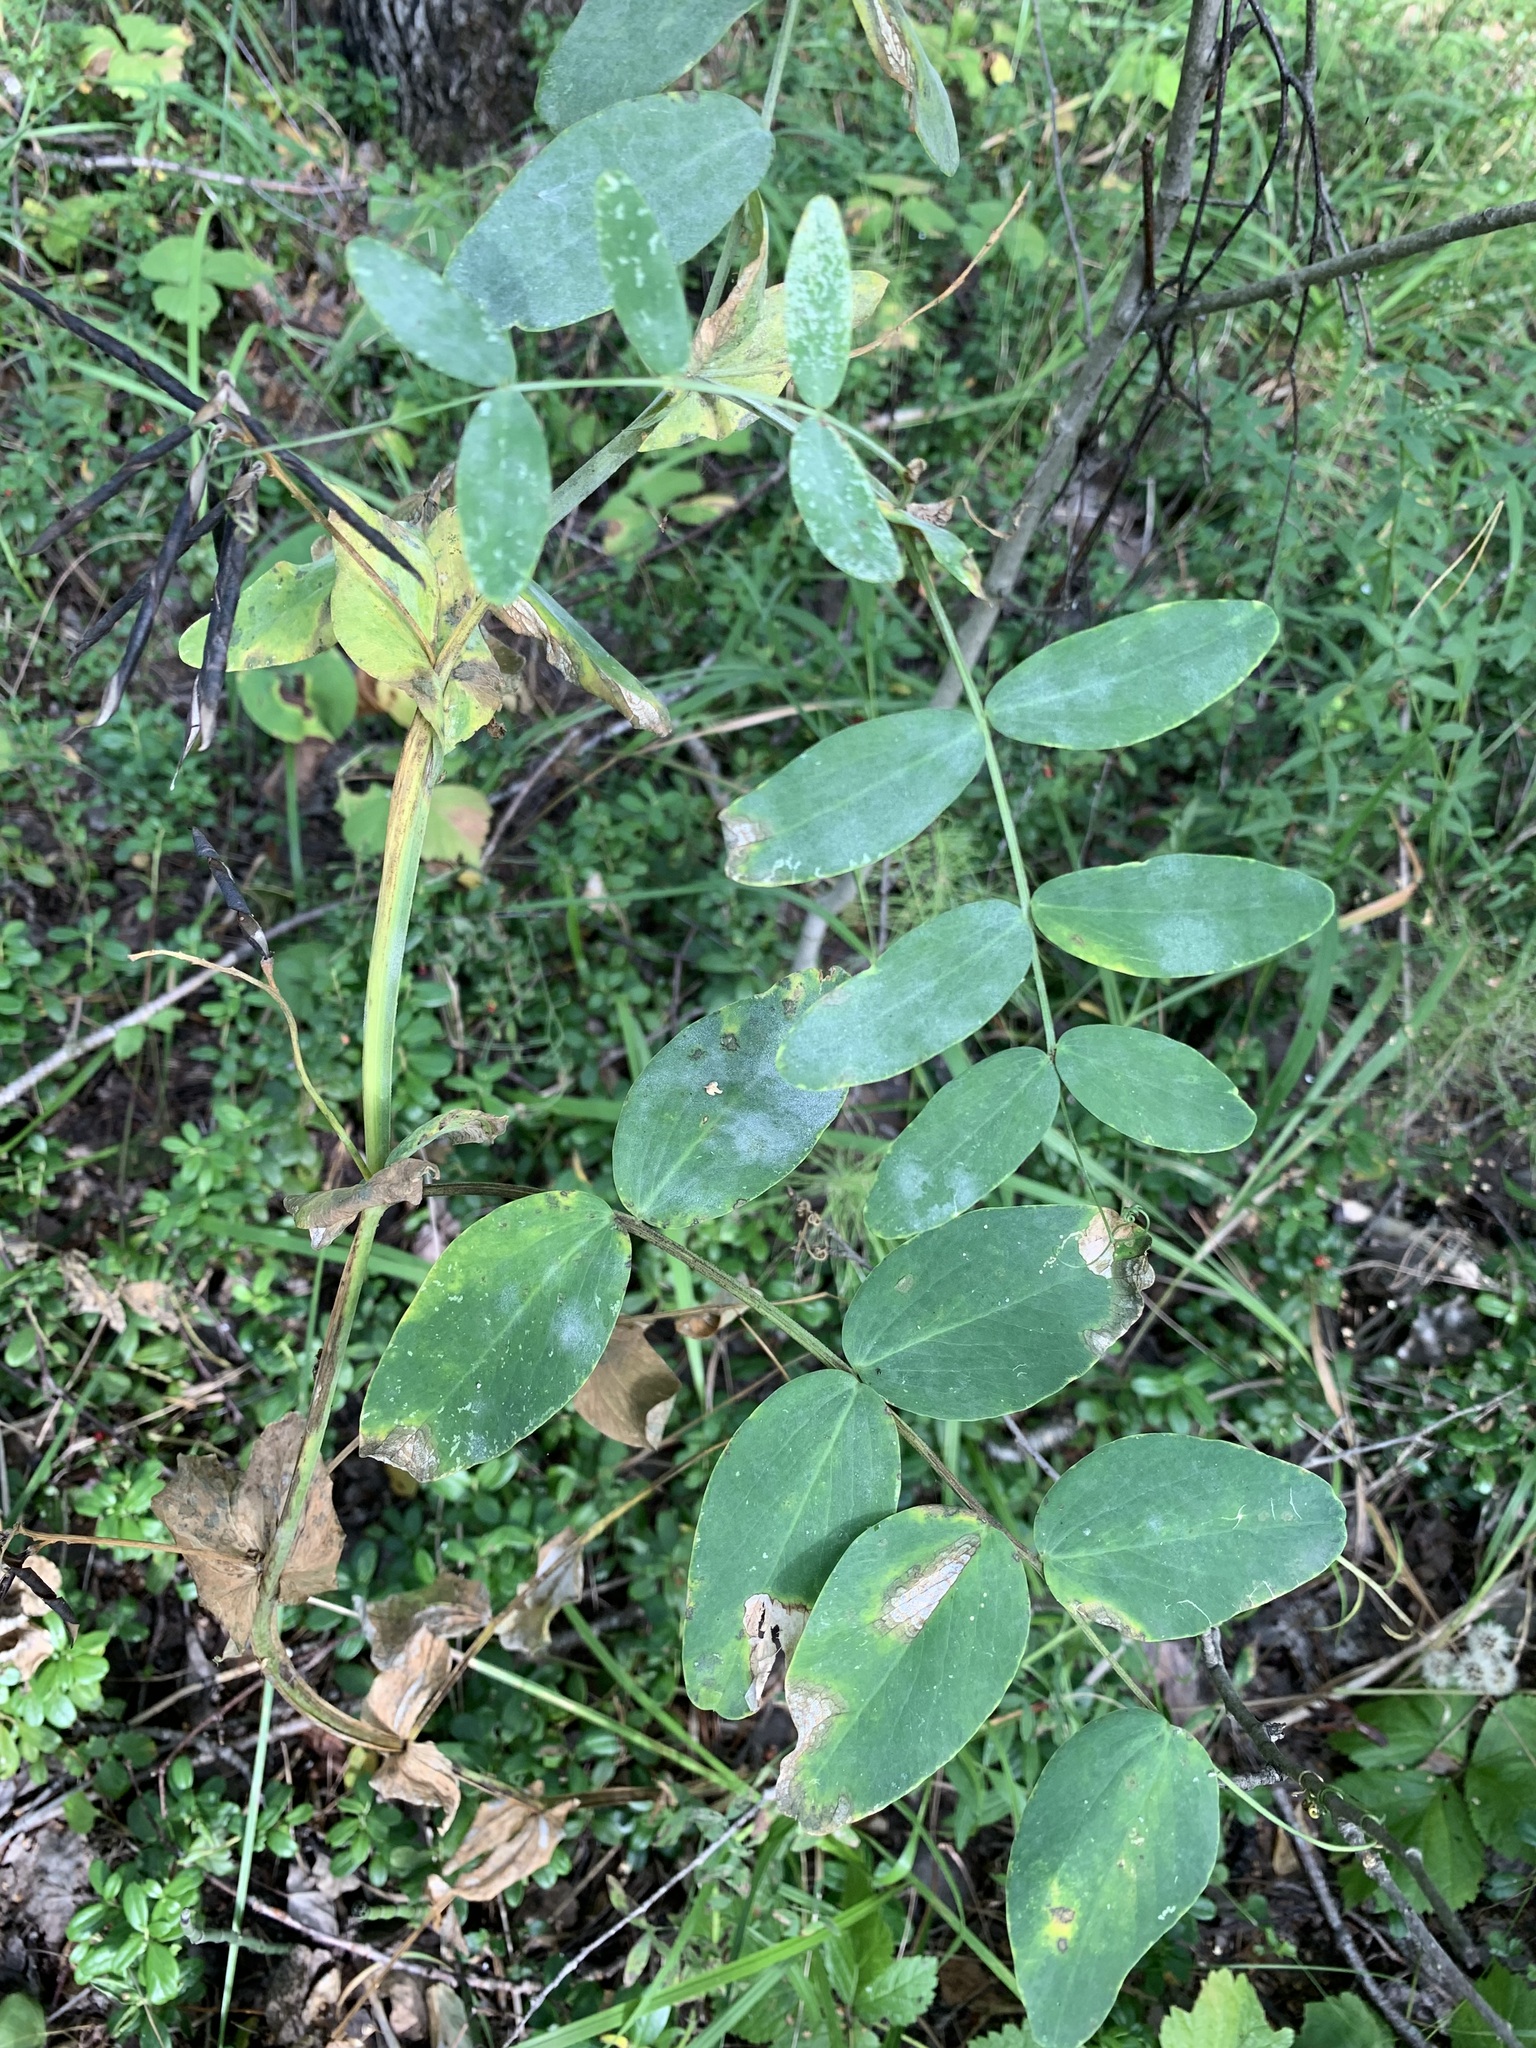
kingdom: Plantae
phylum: Tracheophyta
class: Magnoliopsida
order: Fabales
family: Fabaceae
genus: Lathyrus
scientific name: Lathyrus pisiformis
